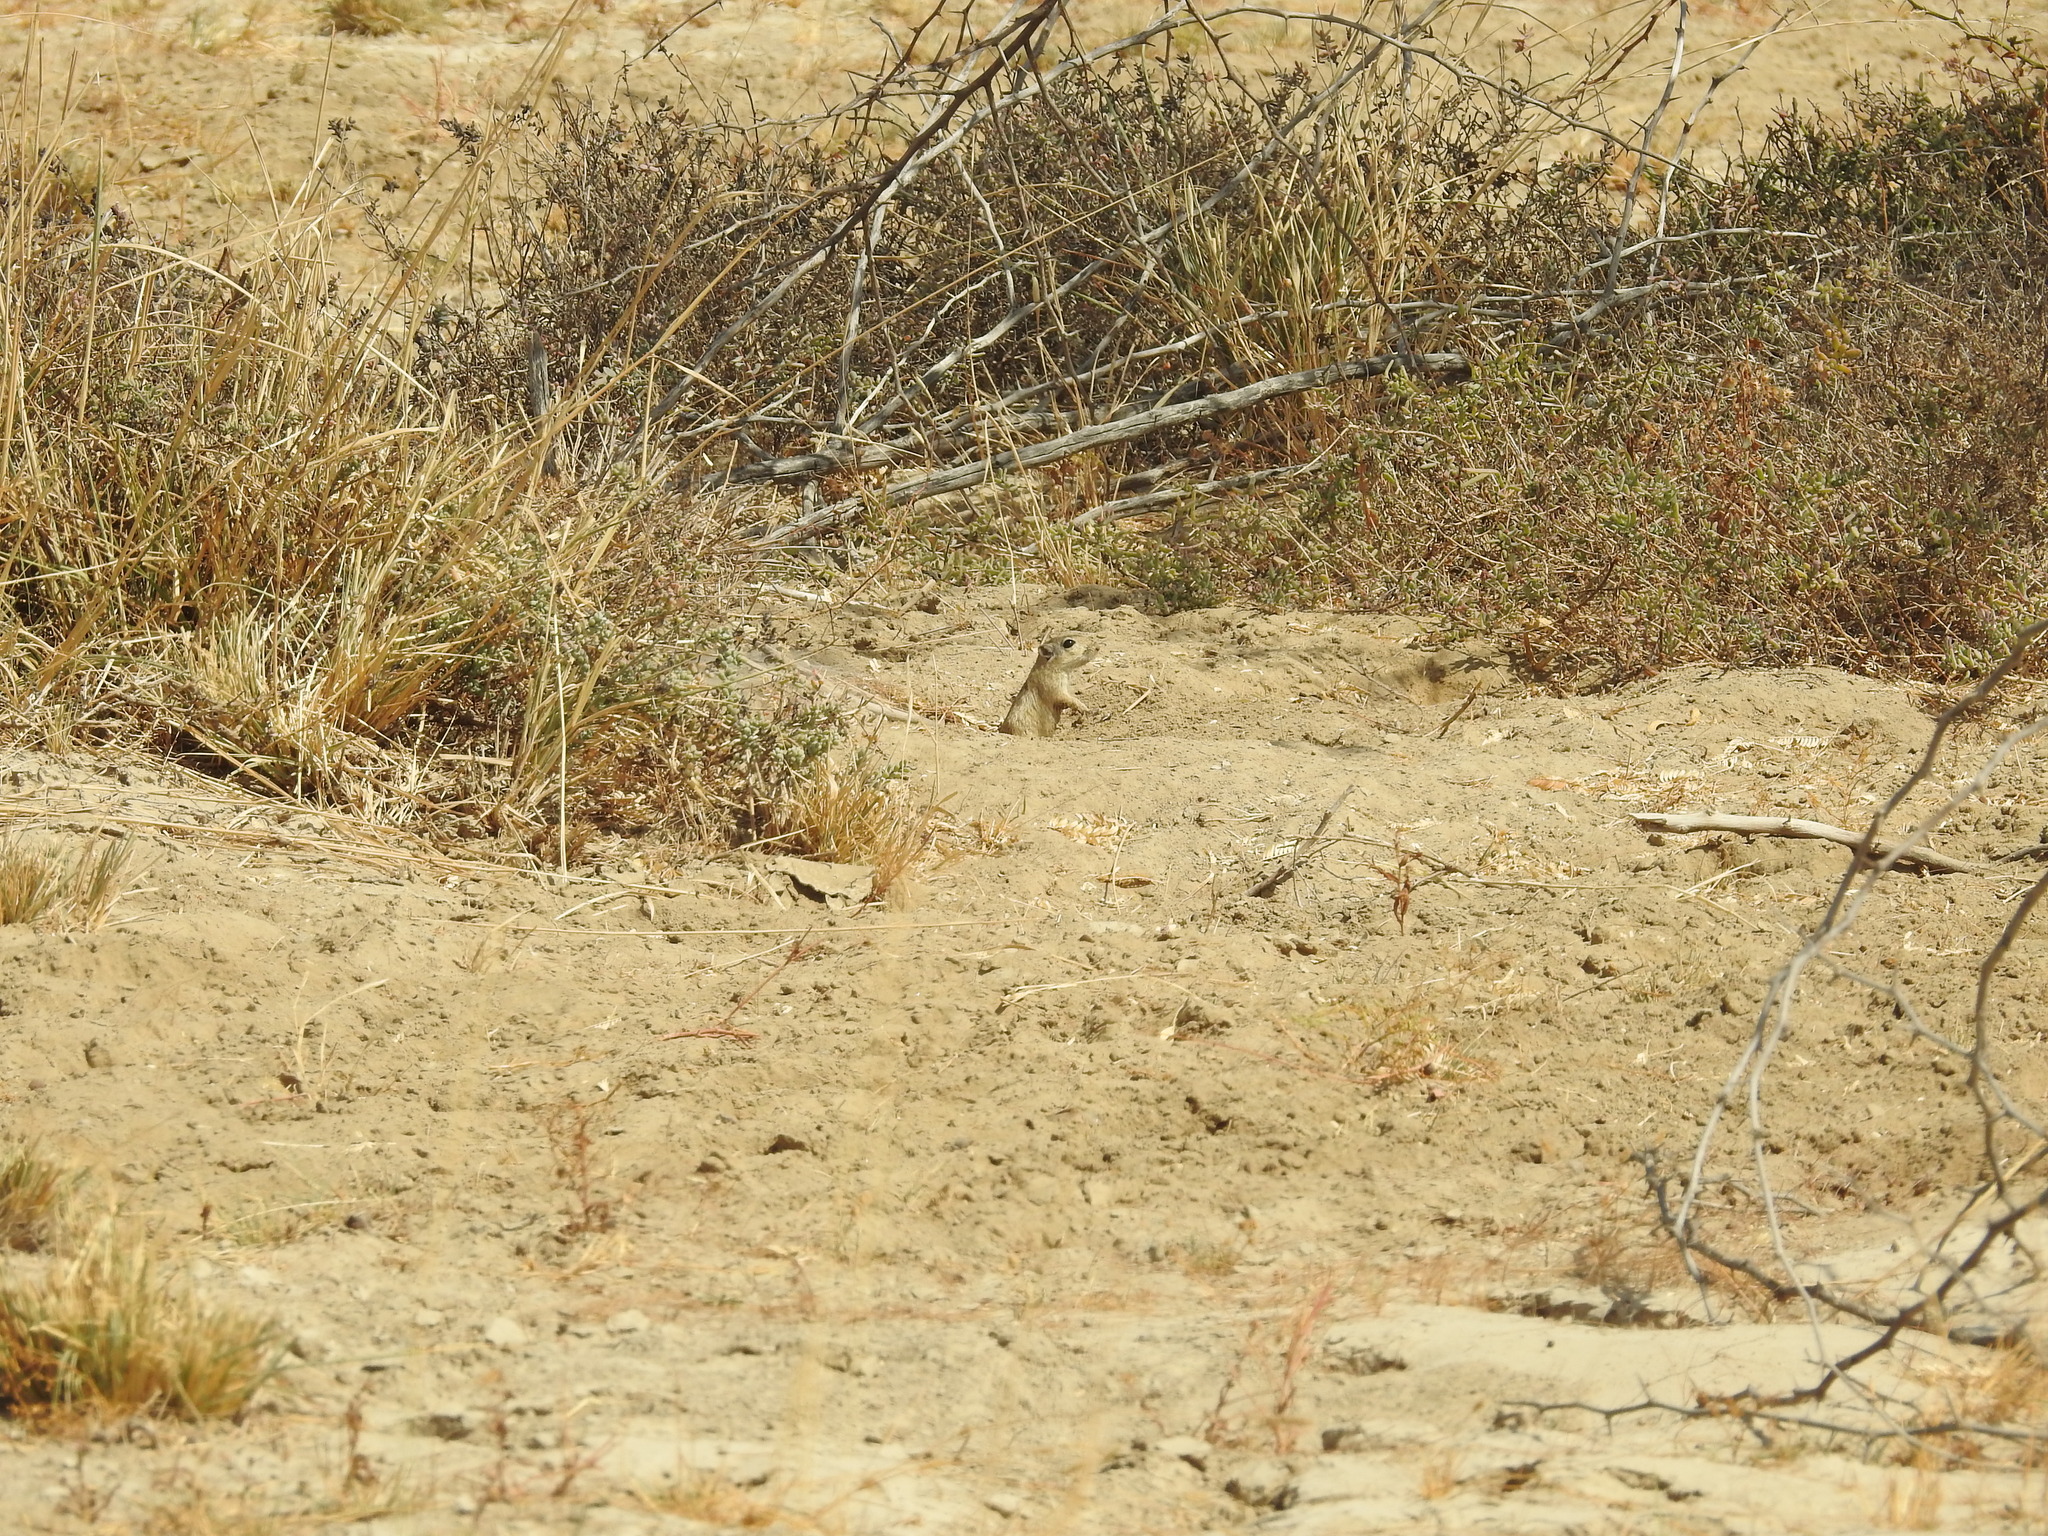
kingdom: Animalia
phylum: Chordata
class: Mammalia
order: Rodentia
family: Muridae
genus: Meriones
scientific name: Meriones hurrianae
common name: Indian desert jird
